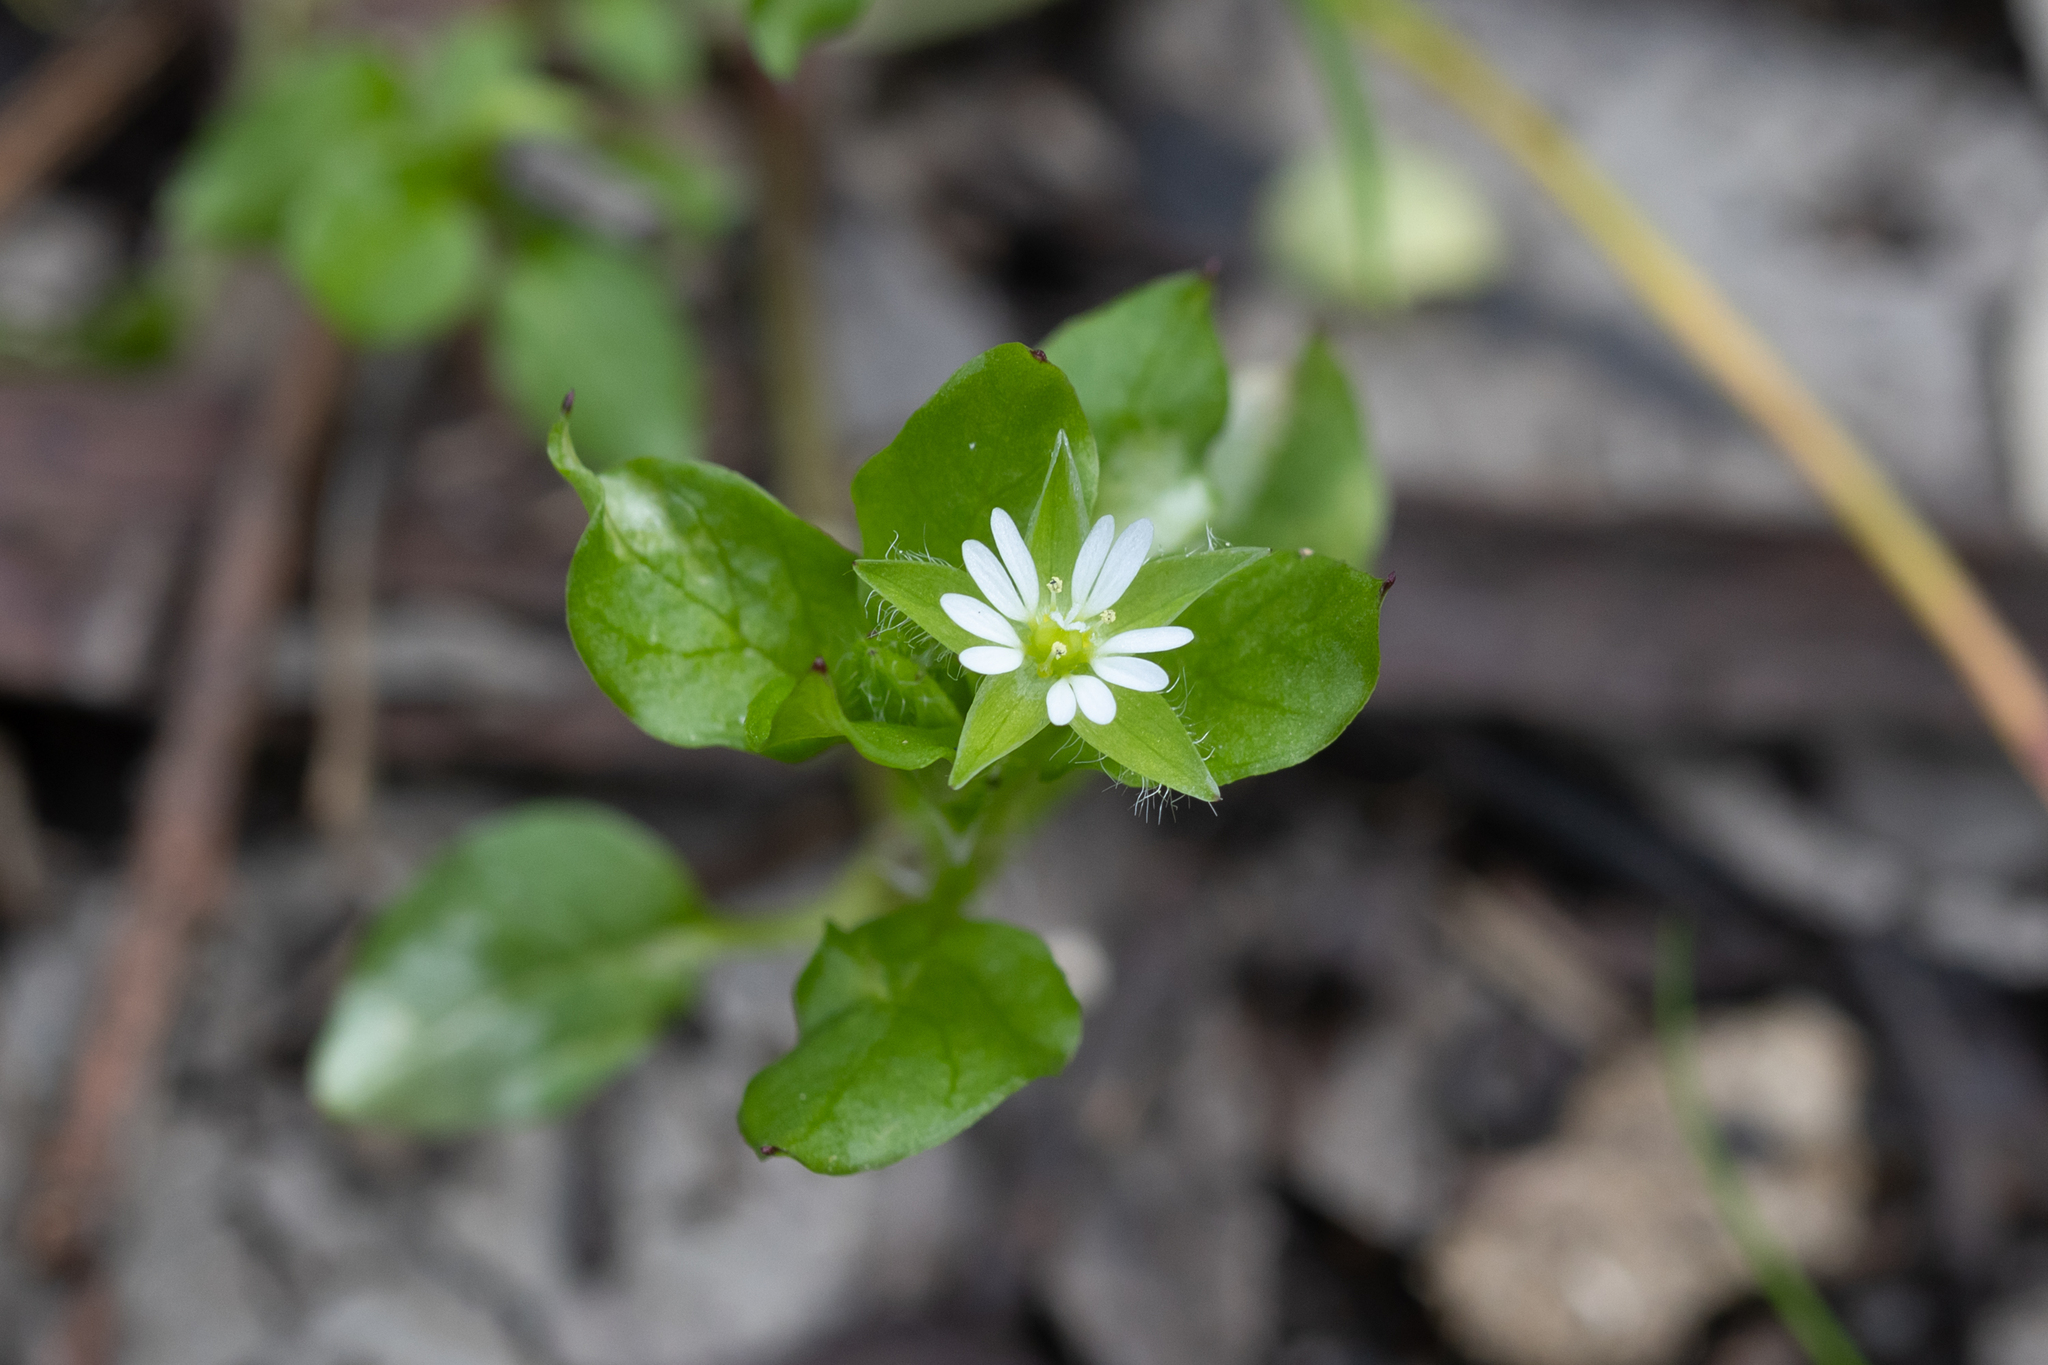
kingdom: Plantae
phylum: Tracheophyta
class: Magnoliopsida
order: Caryophyllales
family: Caryophyllaceae
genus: Stellaria
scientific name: Stellaria media
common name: Common chickweed
